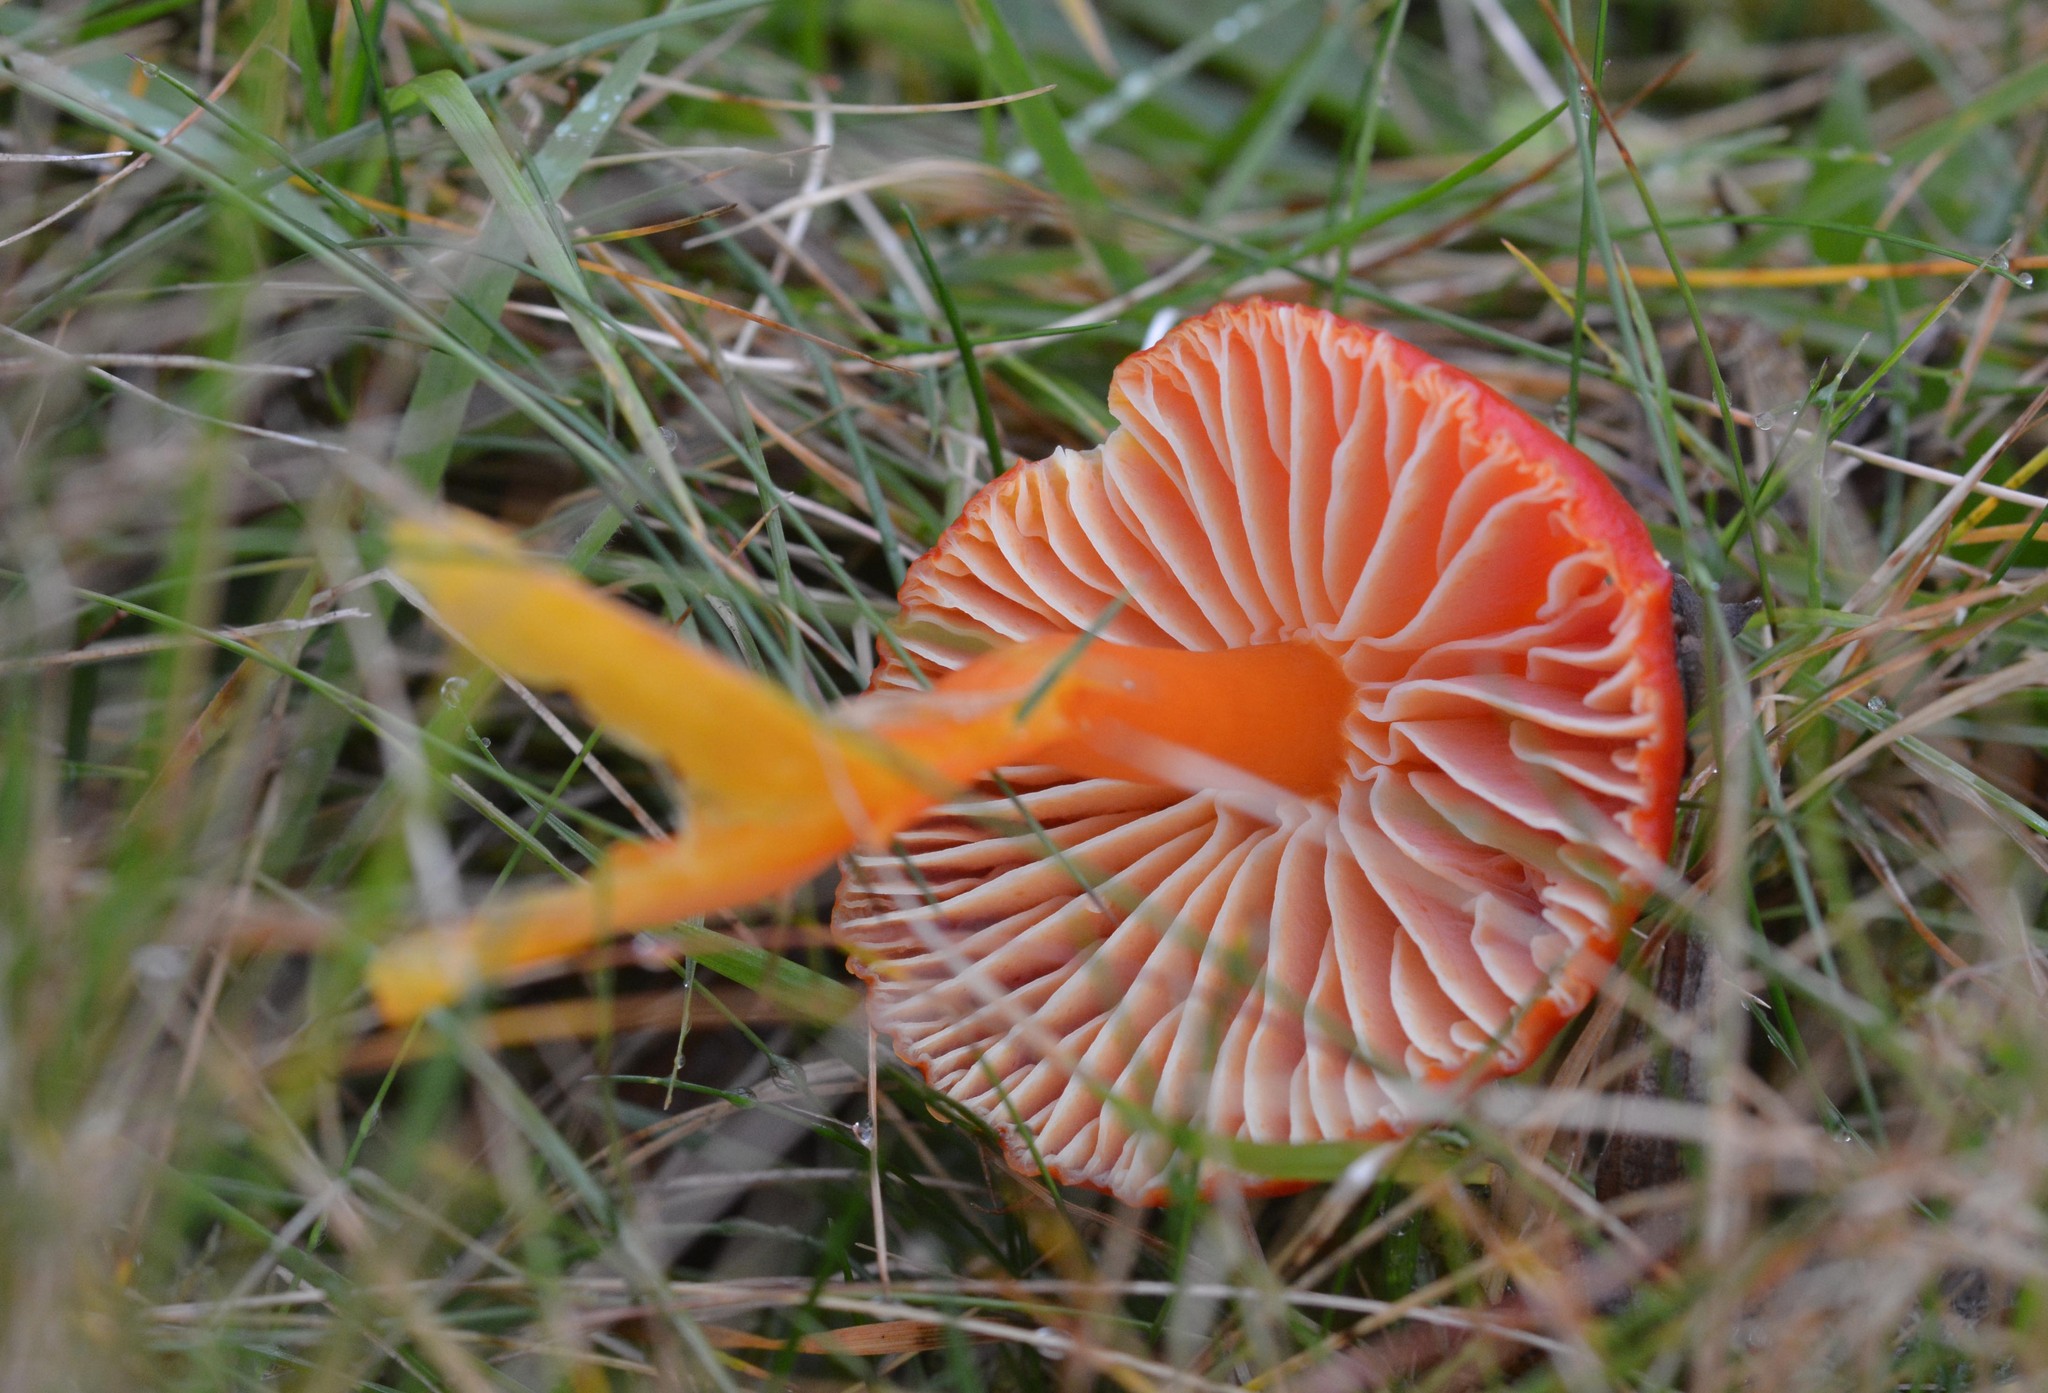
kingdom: Fungi
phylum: Basidiomycota
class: Agaricomycetes
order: Agaricales
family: Hygrophoraceae
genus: Hygrocybe
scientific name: Hygrocybe coccinea
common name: Scarlet hood
